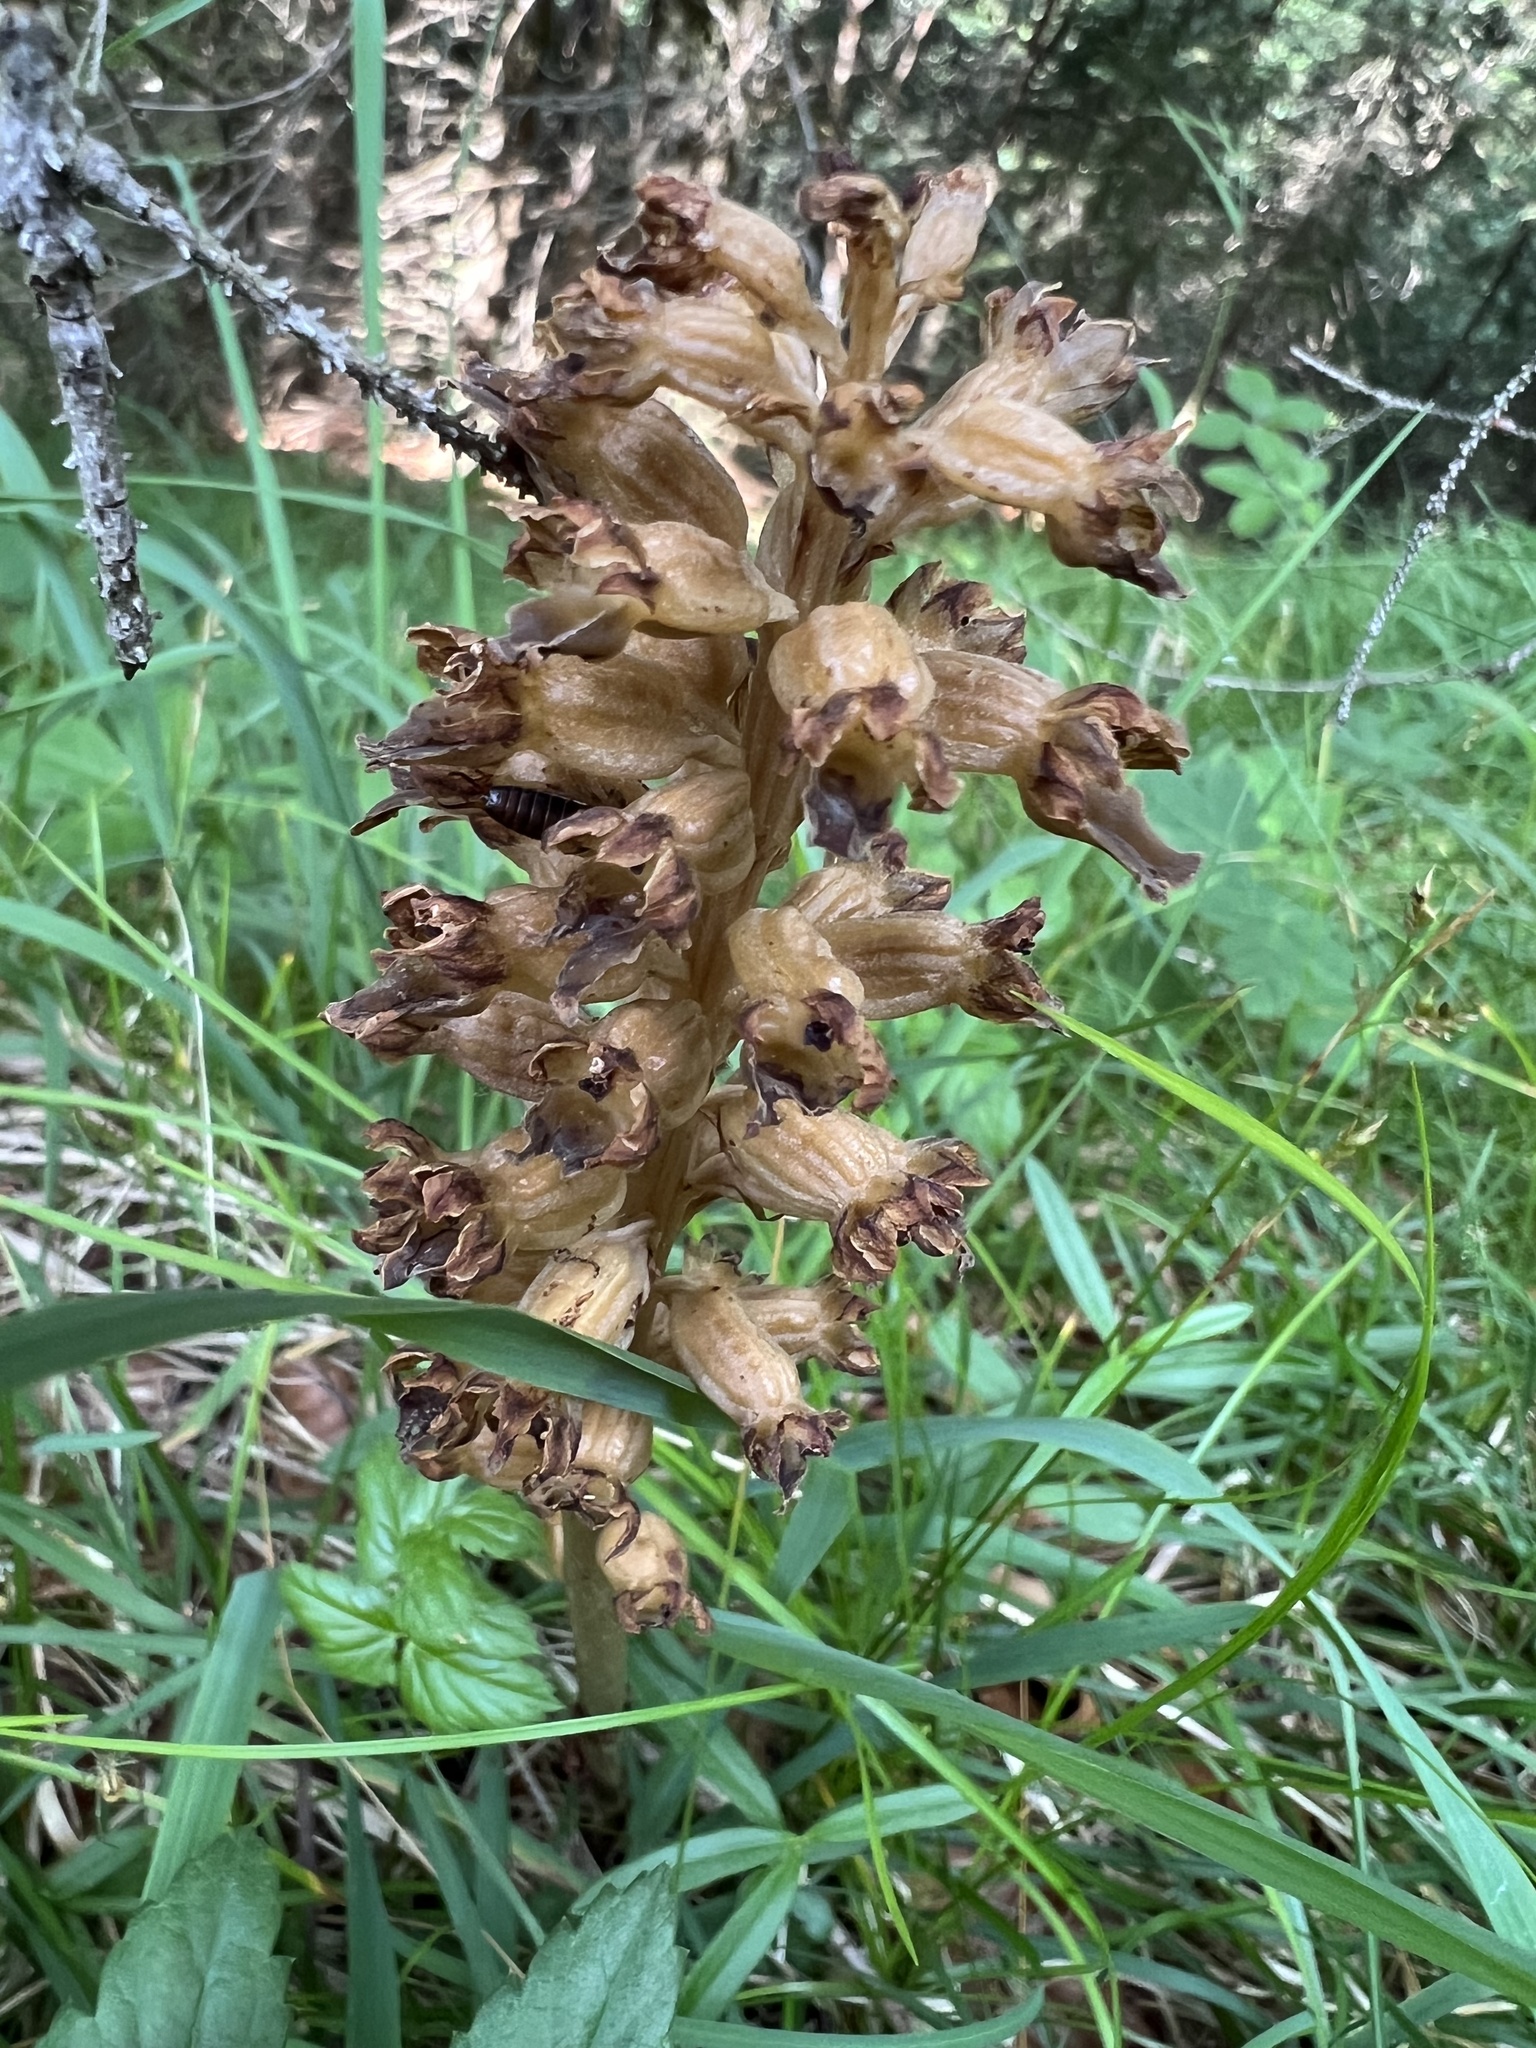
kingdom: Plantae
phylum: Tracheophyta
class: Liliopsida
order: Asparagales
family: Orchidaceae
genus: Neottia
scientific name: Neottia nidus-avis
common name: Bird's-nest orchid
